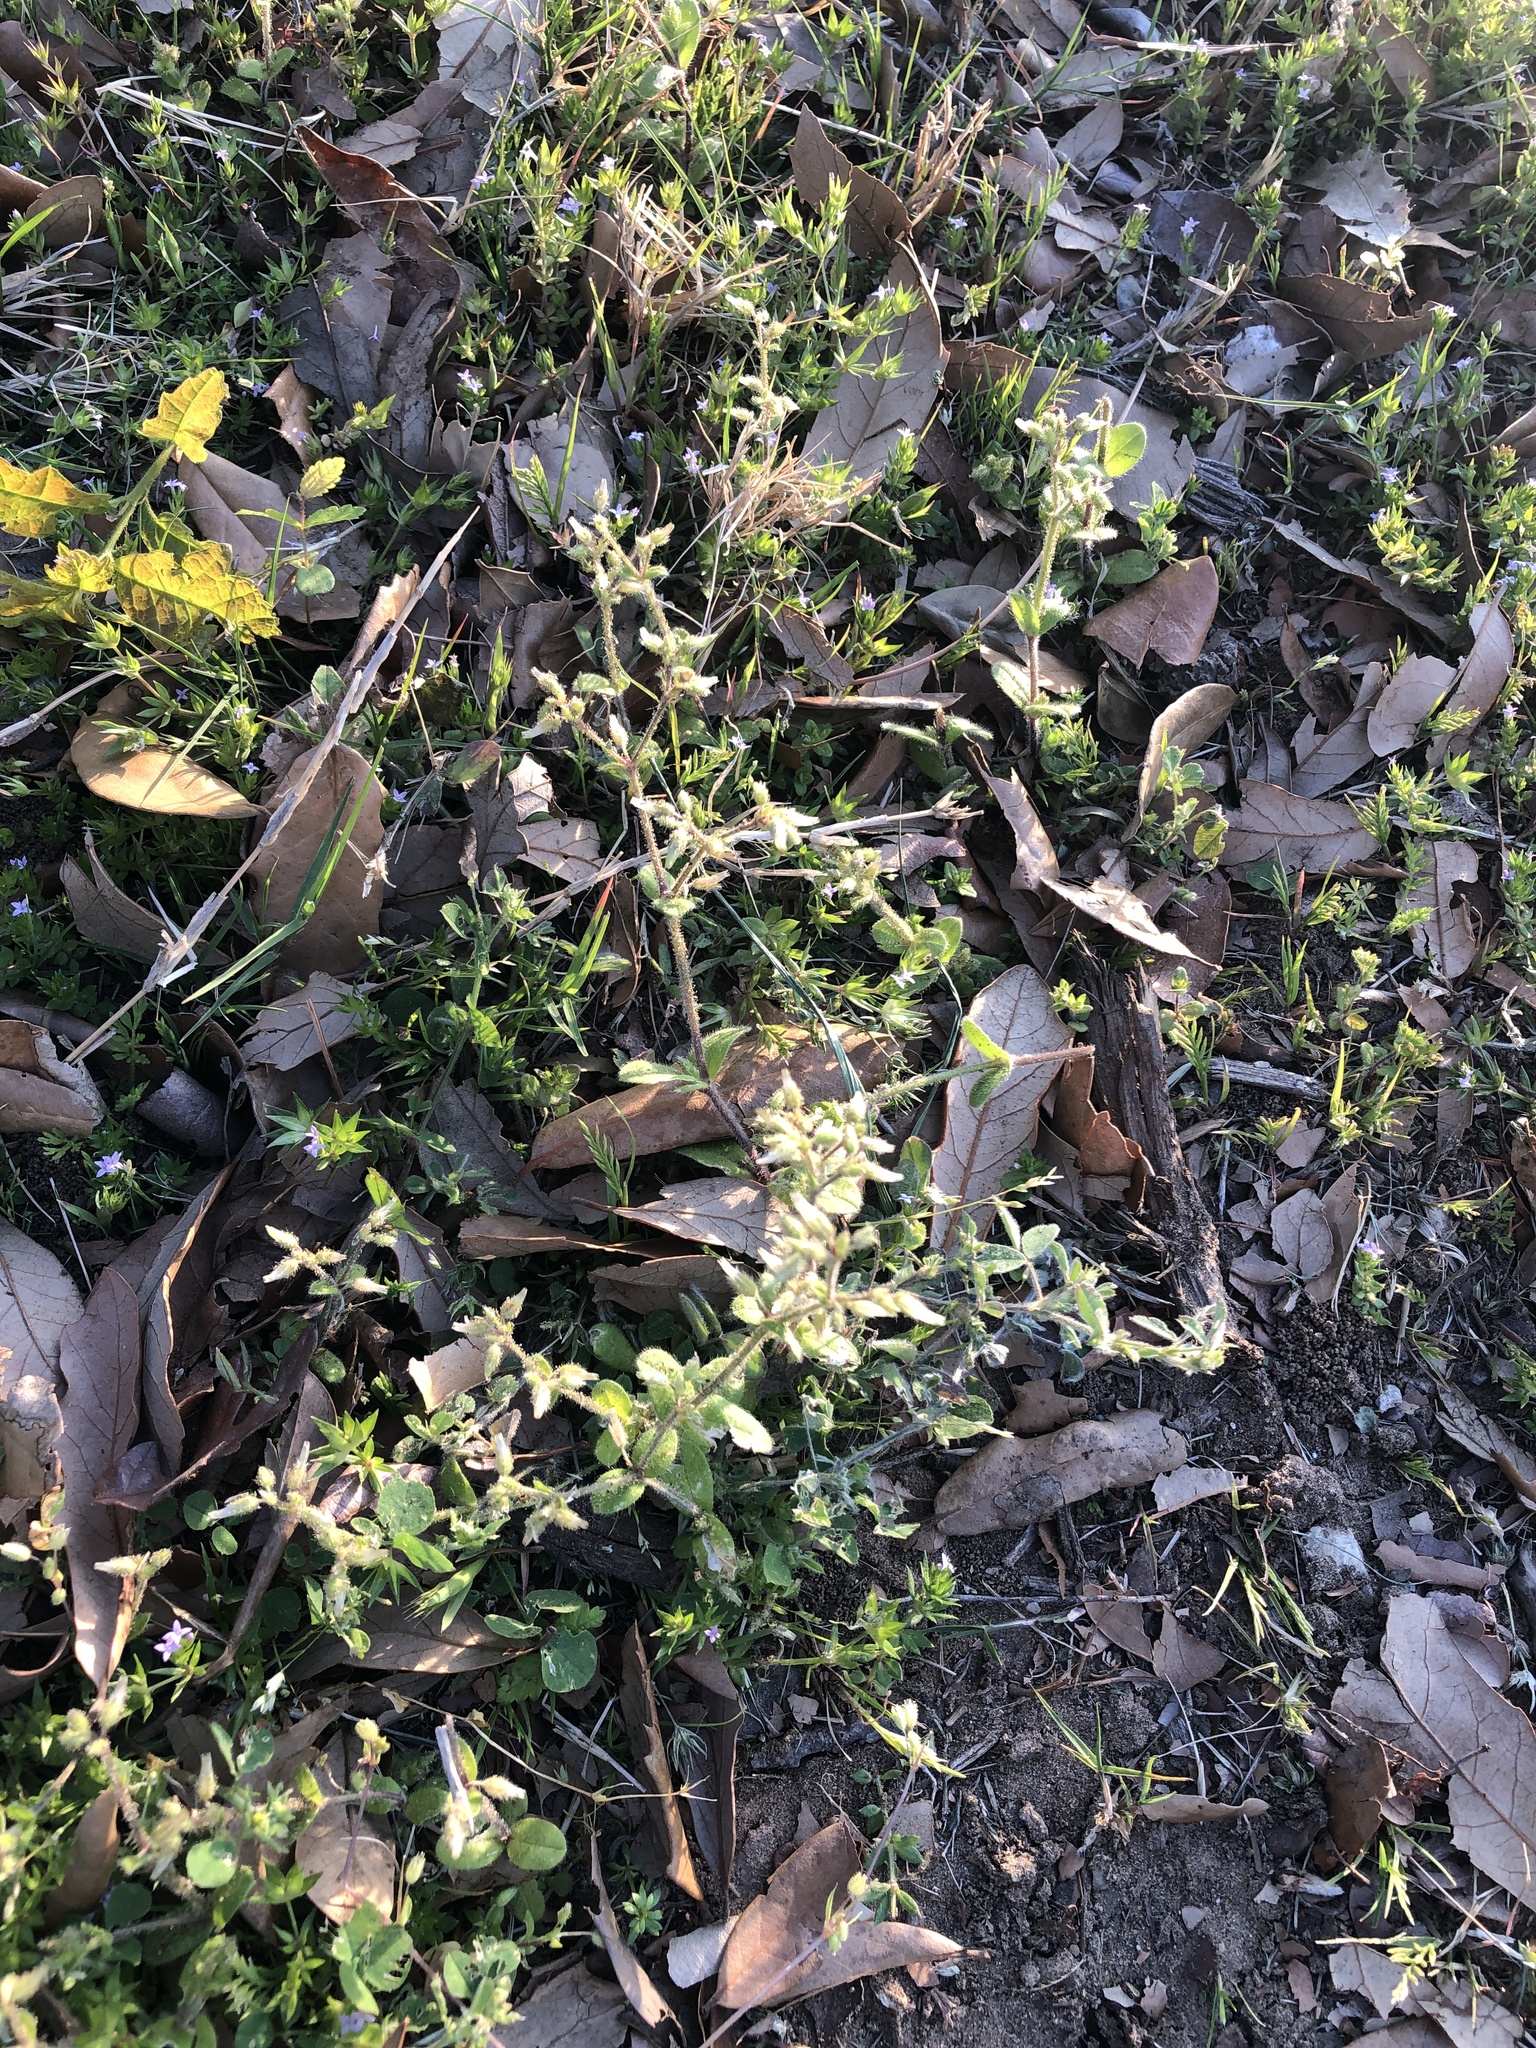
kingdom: Plantae
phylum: Tracheophyta
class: Magnoliopsida
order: Caryophyllales
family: Caryophyllaceae
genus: Cerastium
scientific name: Cerastium glomeratum
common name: Sticky chickweed
